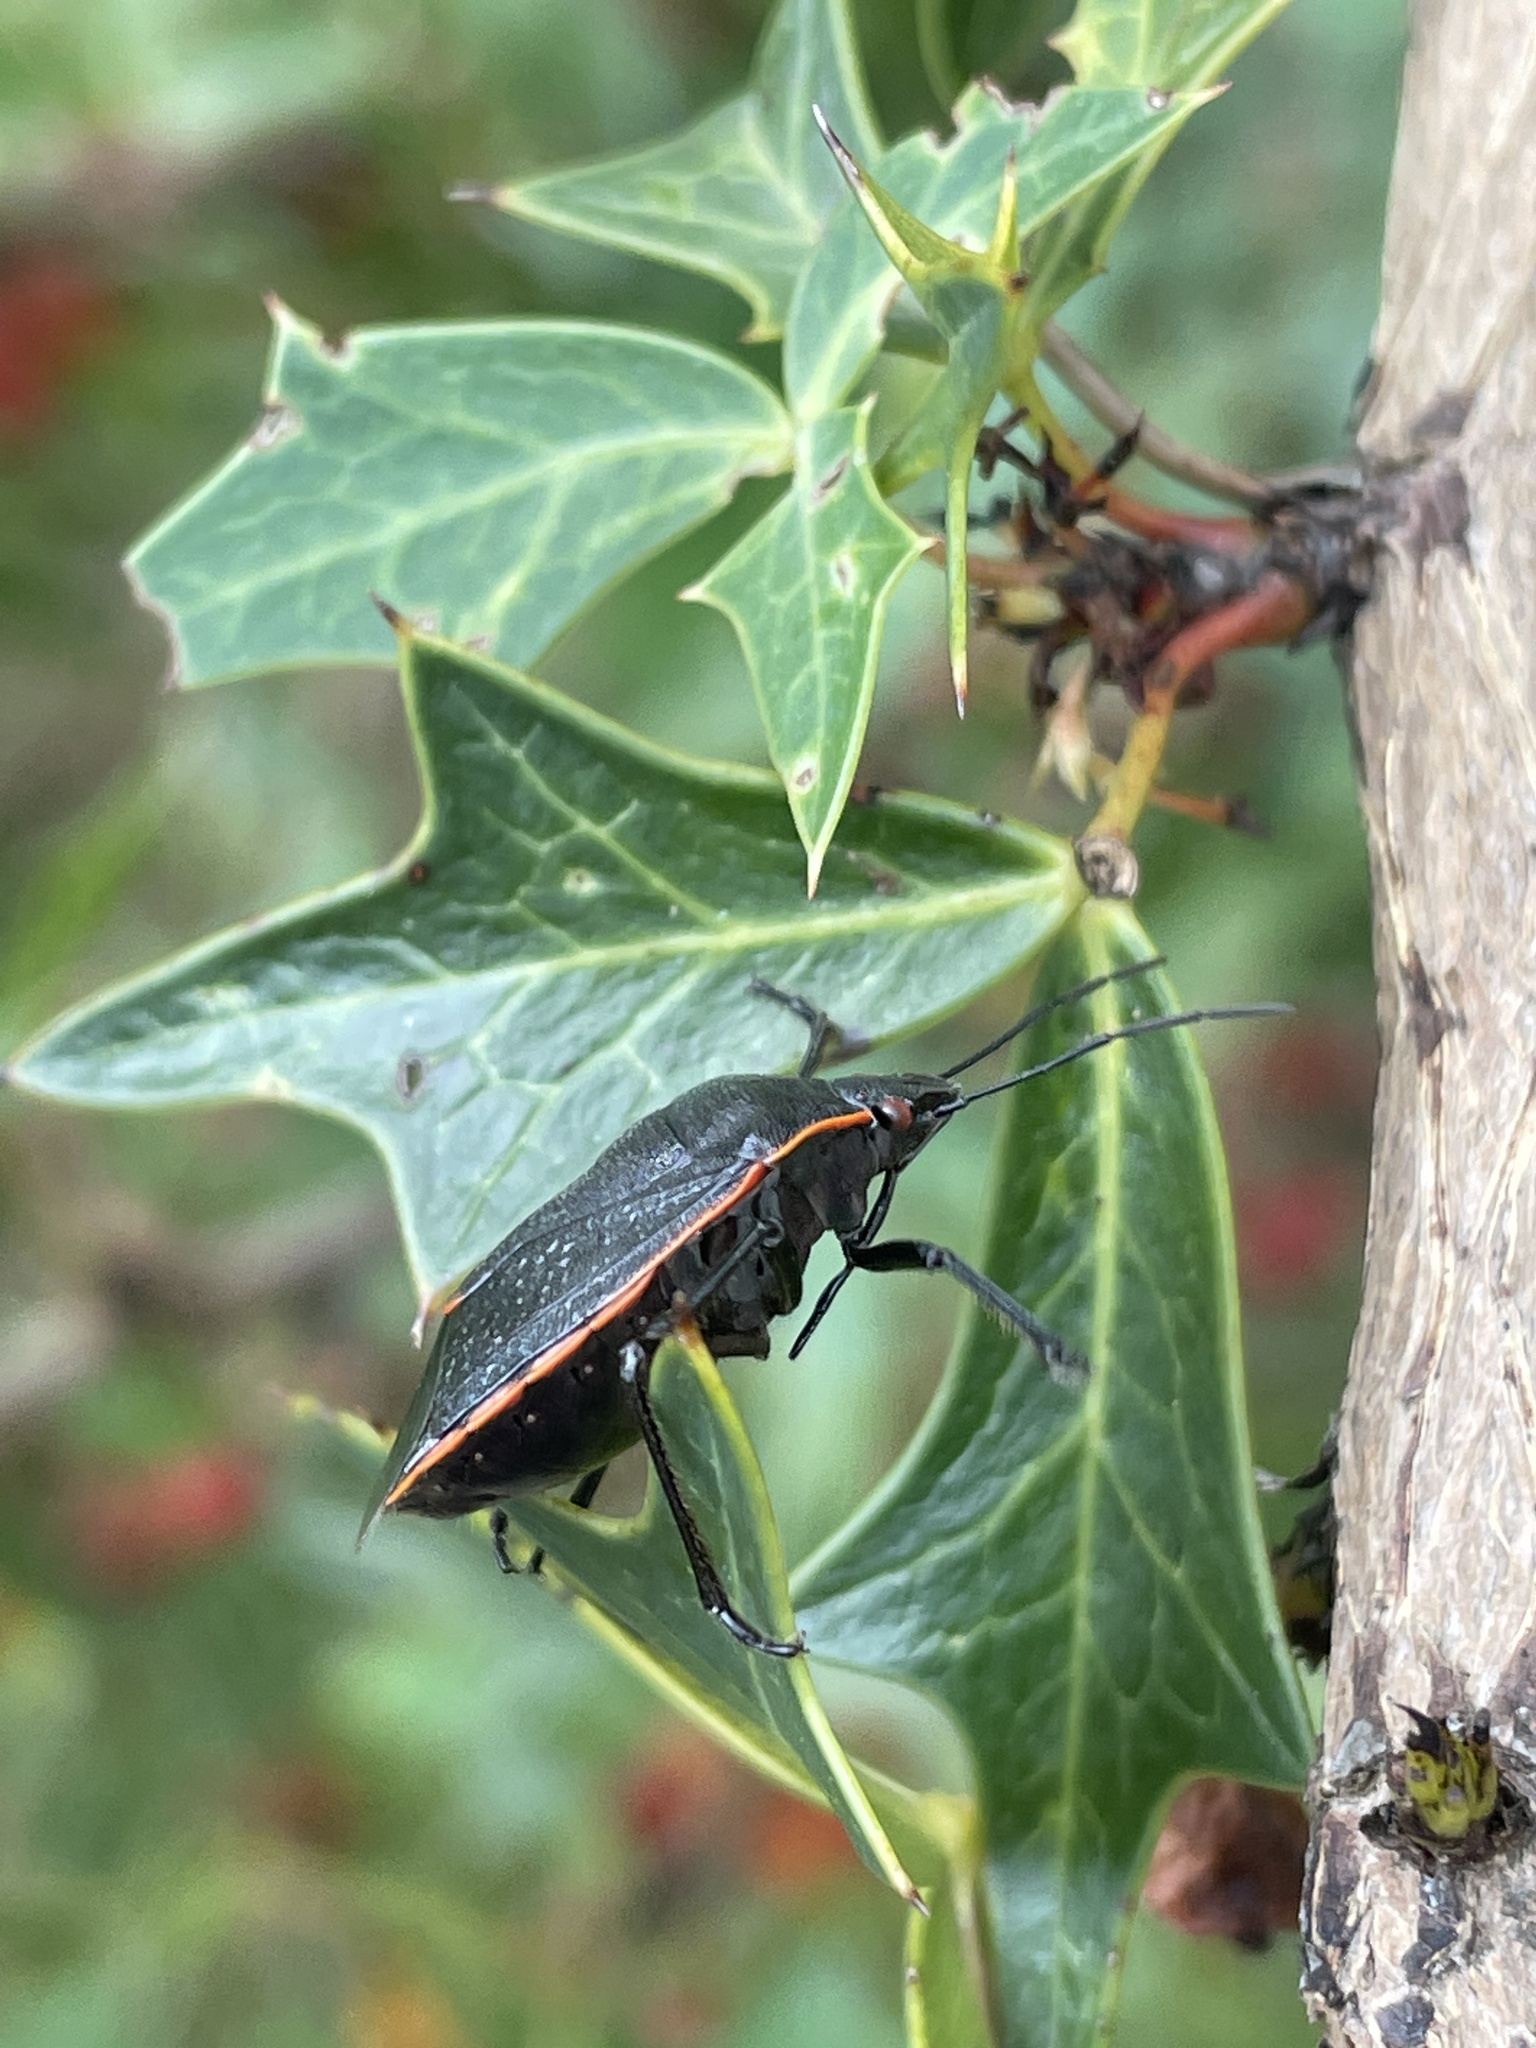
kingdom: Animalia
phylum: Arthropoda
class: Insecta
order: Hemiptera
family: Pentatomidae
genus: Chlorochroa
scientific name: Chlorochroa ligata
